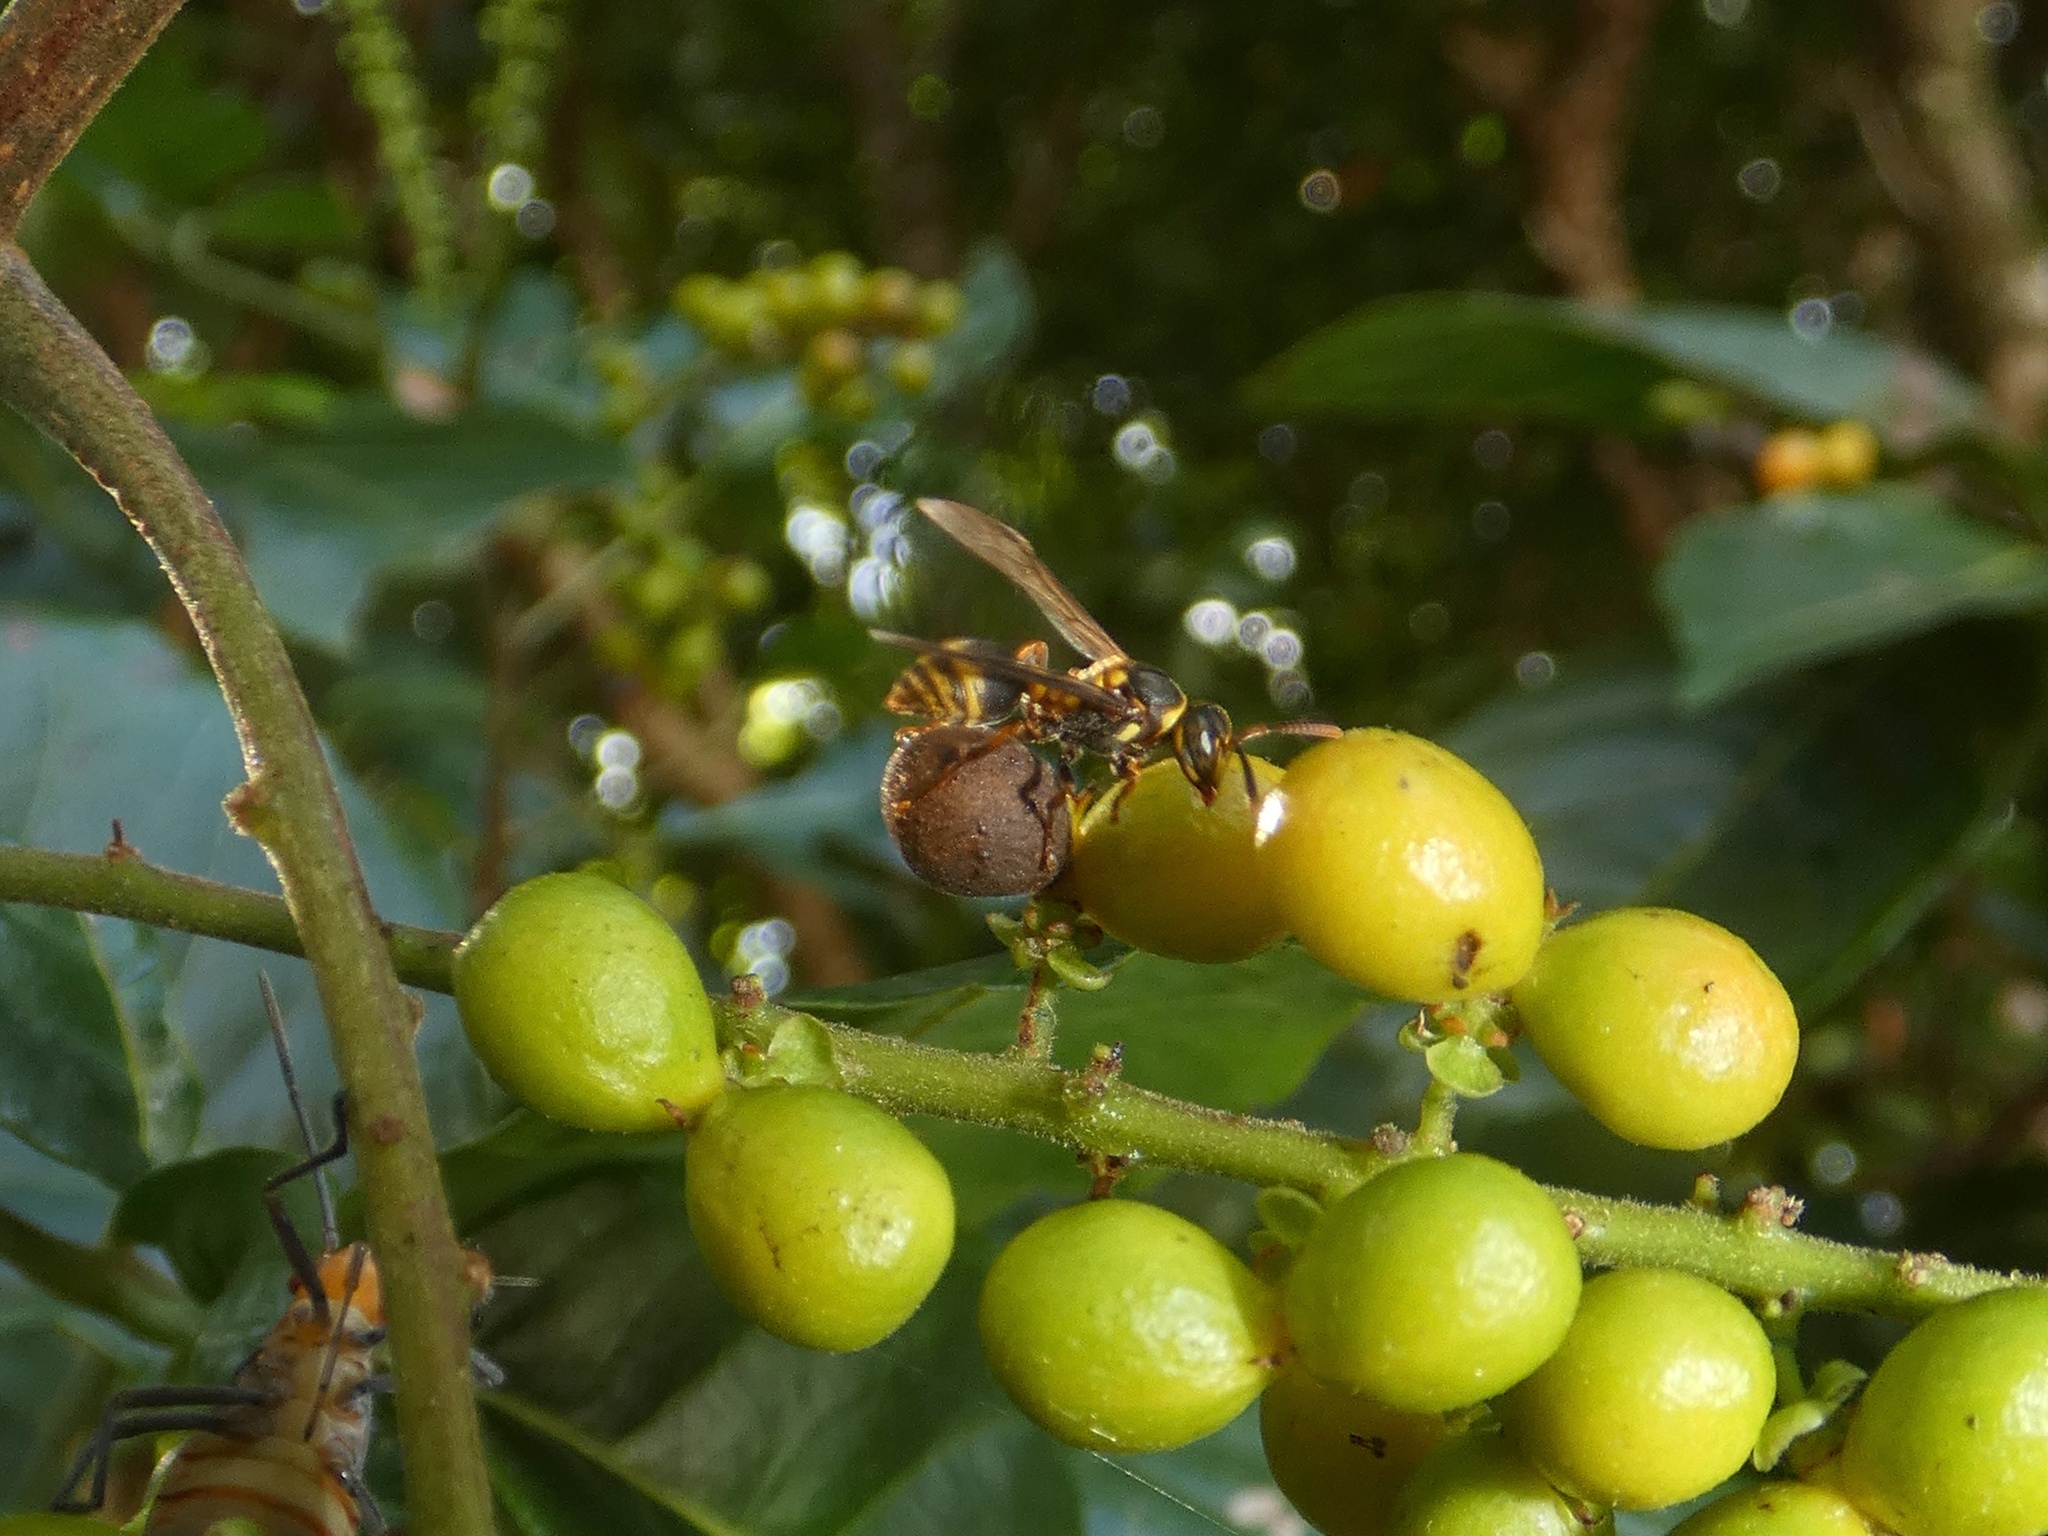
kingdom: Animalia
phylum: Arthropoda
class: Insecta
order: Hymenoptera
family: Vespidae
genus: Ropalidia
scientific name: Ropalidia socialistica
